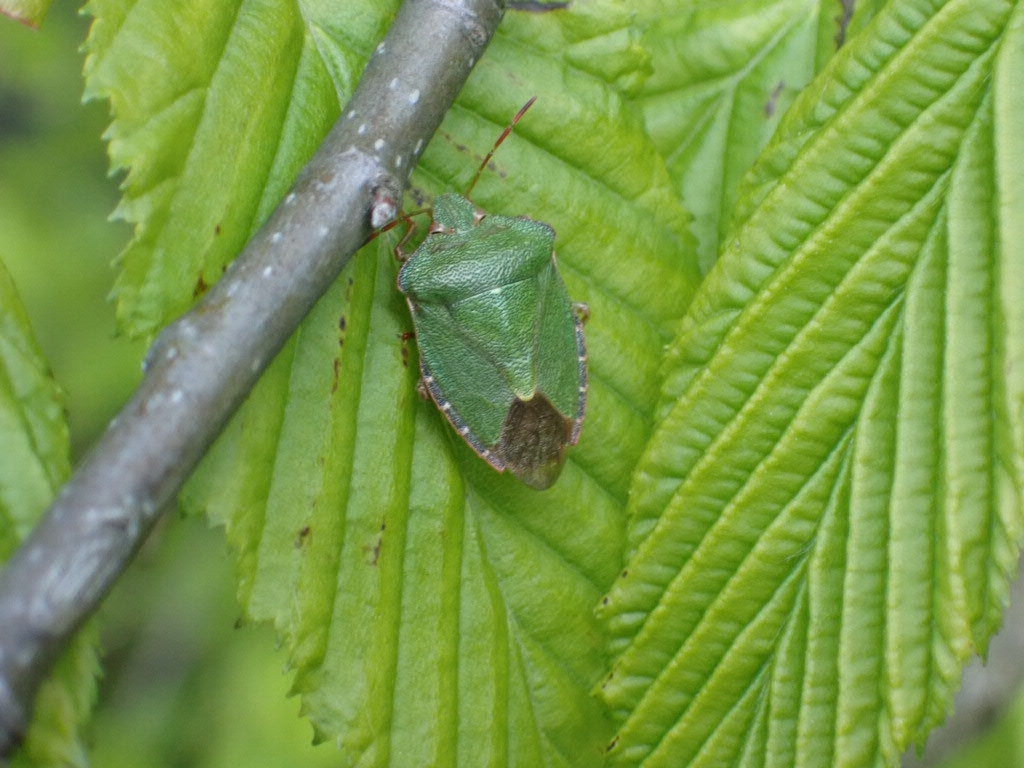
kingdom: Animalia
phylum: Arthropoda
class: Insecta
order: Hemiptera
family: Pentatomidae
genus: Palomena
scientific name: Palomena prasina
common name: Green shieldbug
